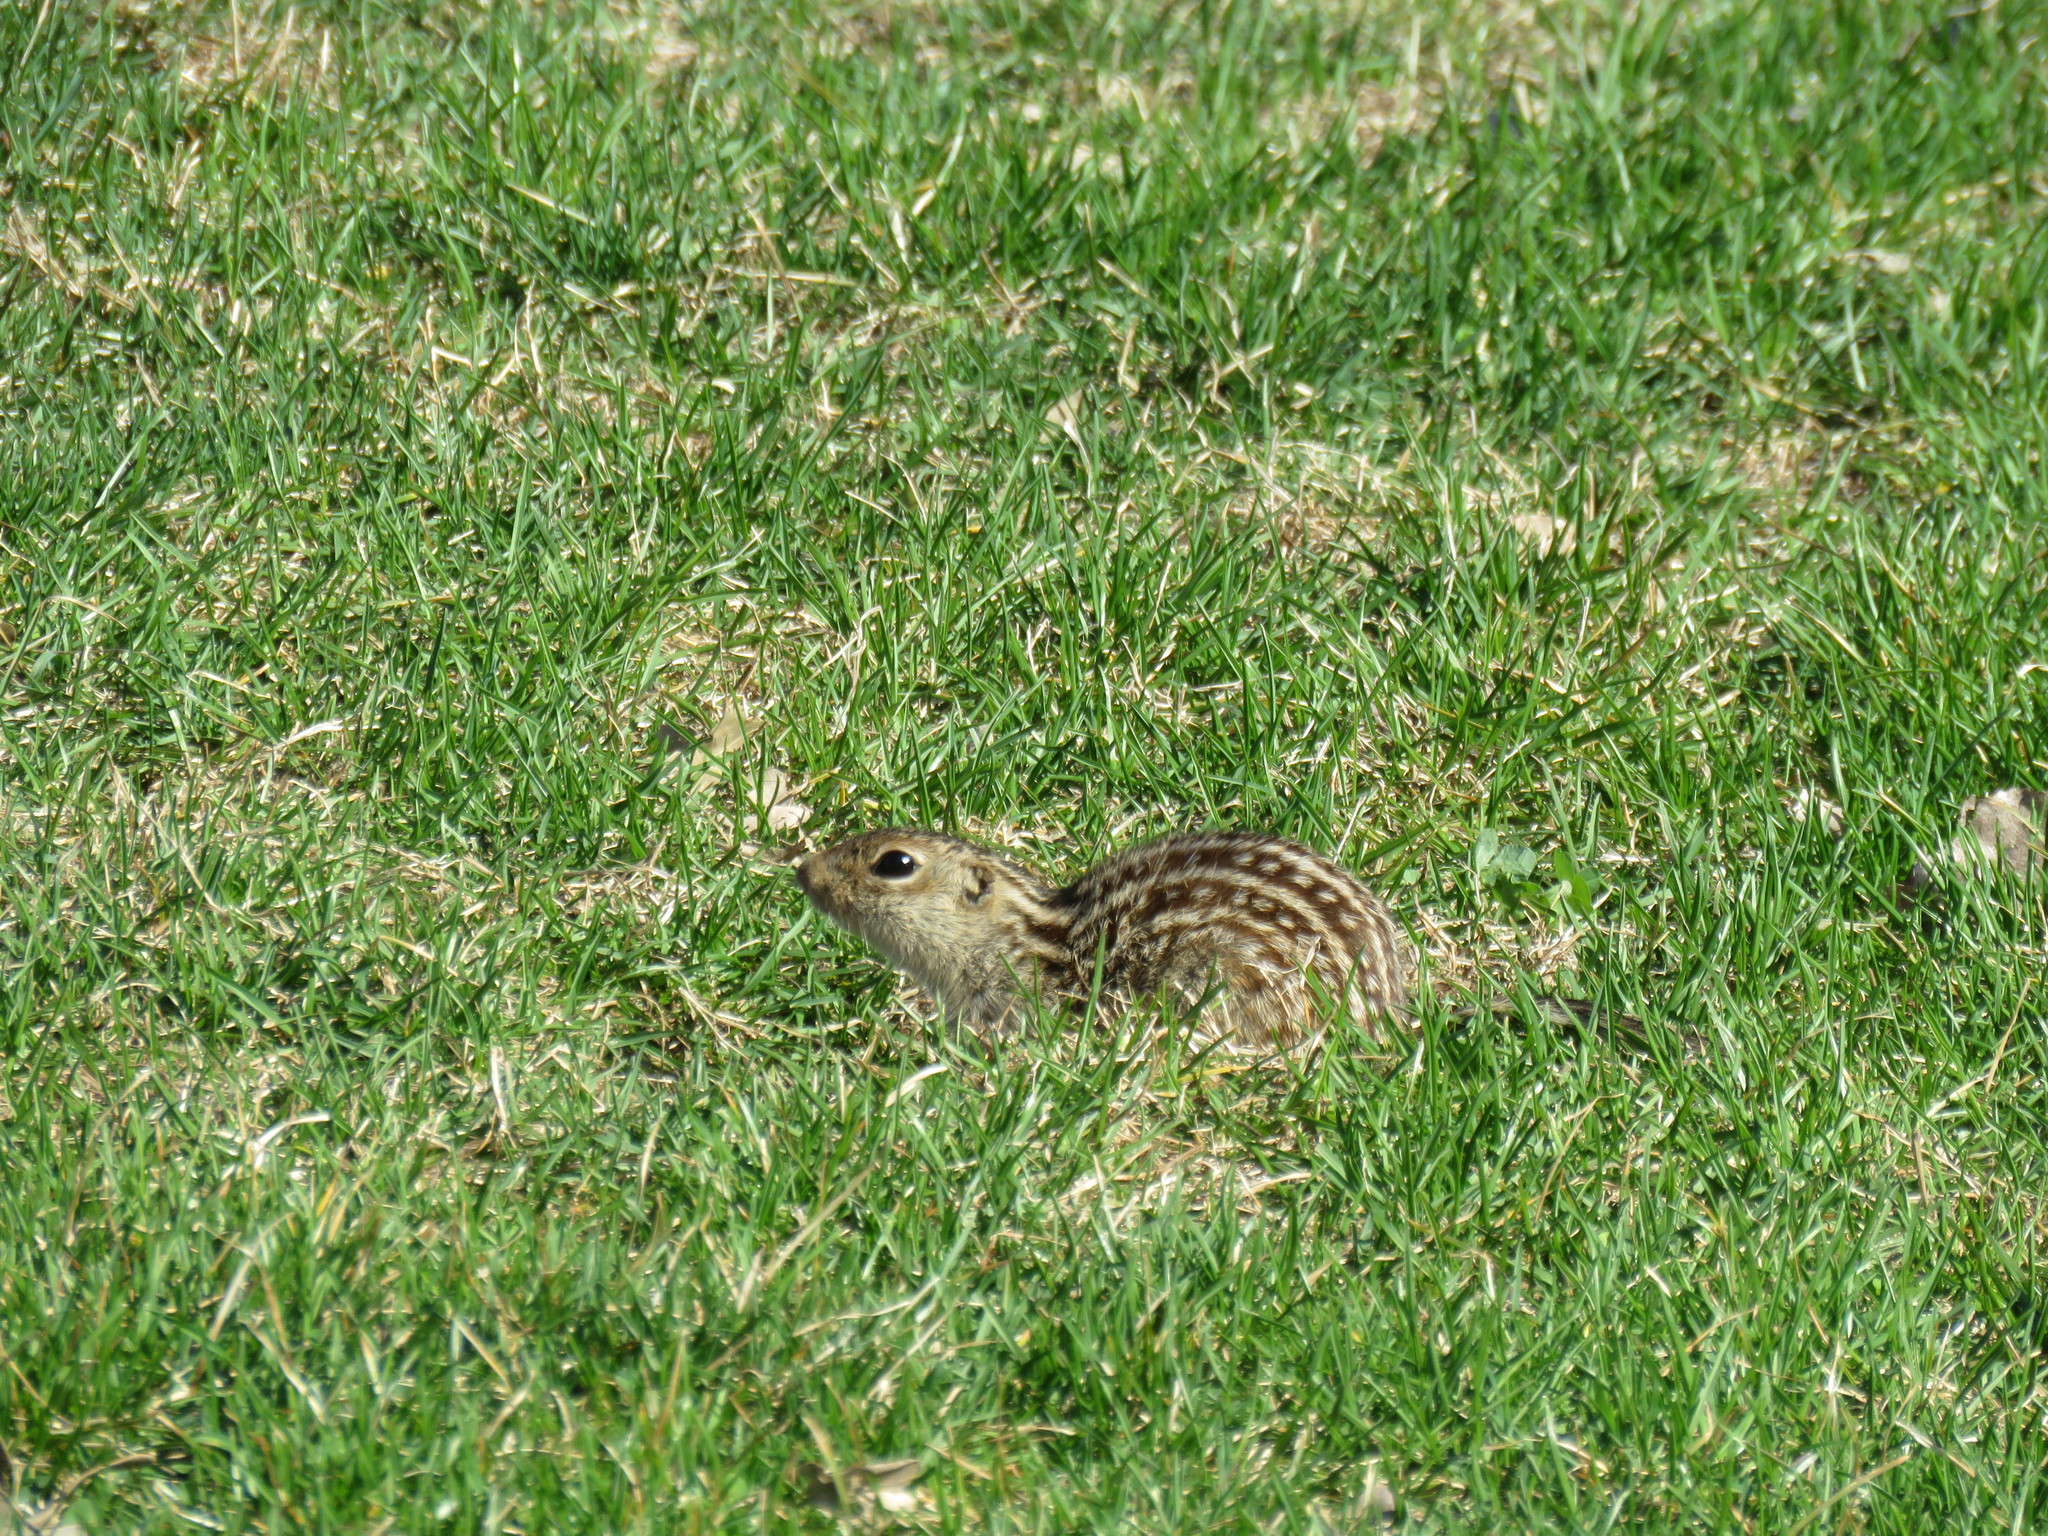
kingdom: Animalia
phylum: Chordata
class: Mammalia
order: Rodentia
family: Sciuridae
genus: Ictidomys
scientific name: Ictidomys tridecemlineatus
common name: Thirteen-lined ground squirrel
